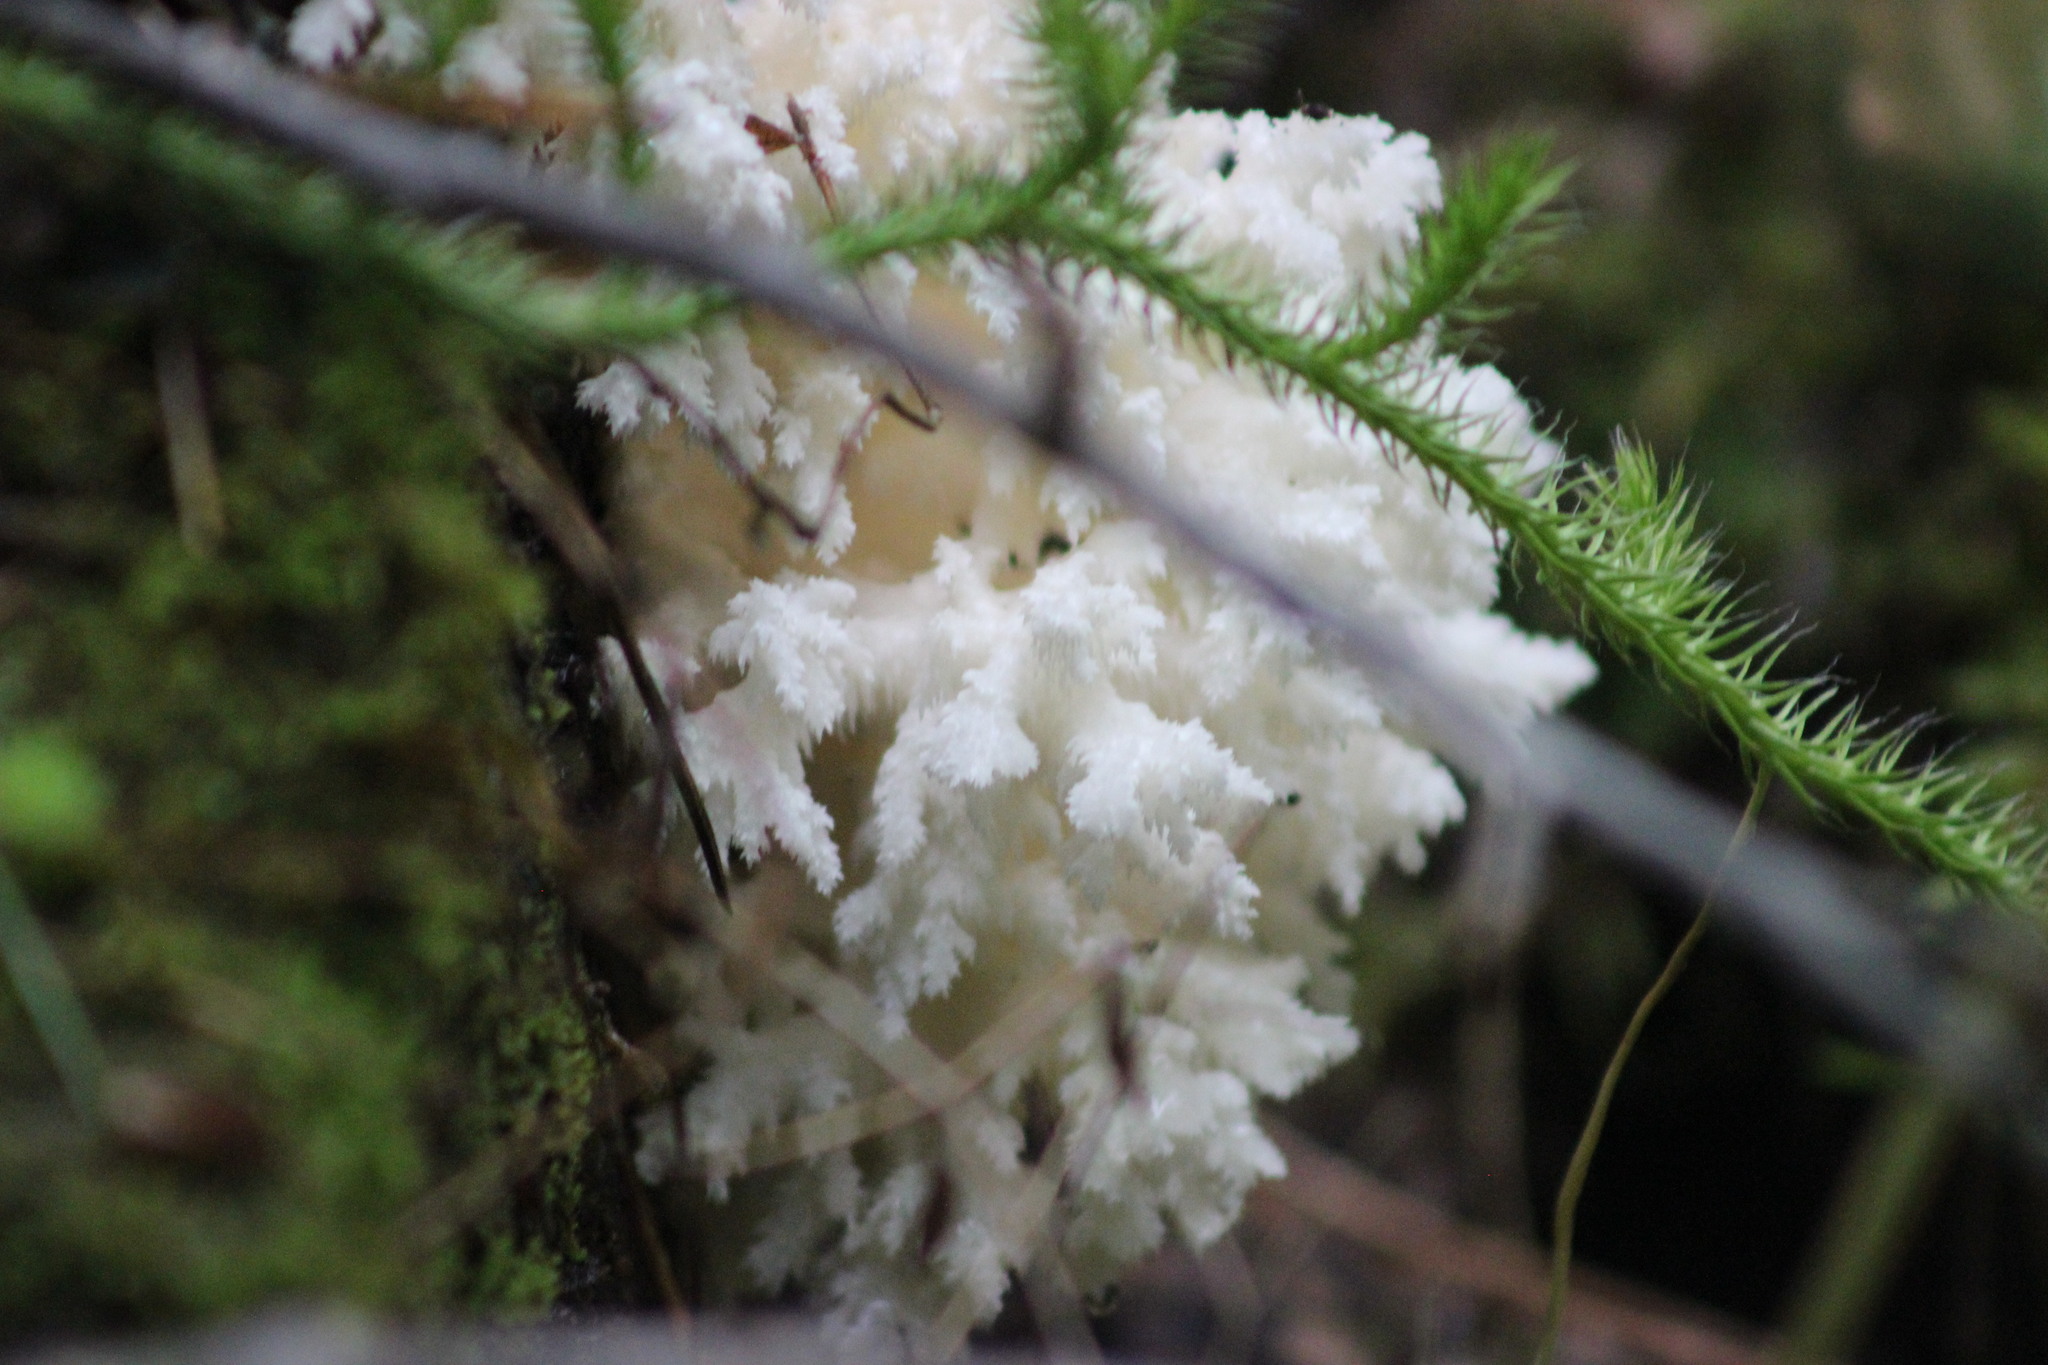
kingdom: Fungi
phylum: Basidiomycota
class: Agaricomycetes
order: Russulales
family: Hericiaceae
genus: Hericium
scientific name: Hericium coralloides
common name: Coral tooth
